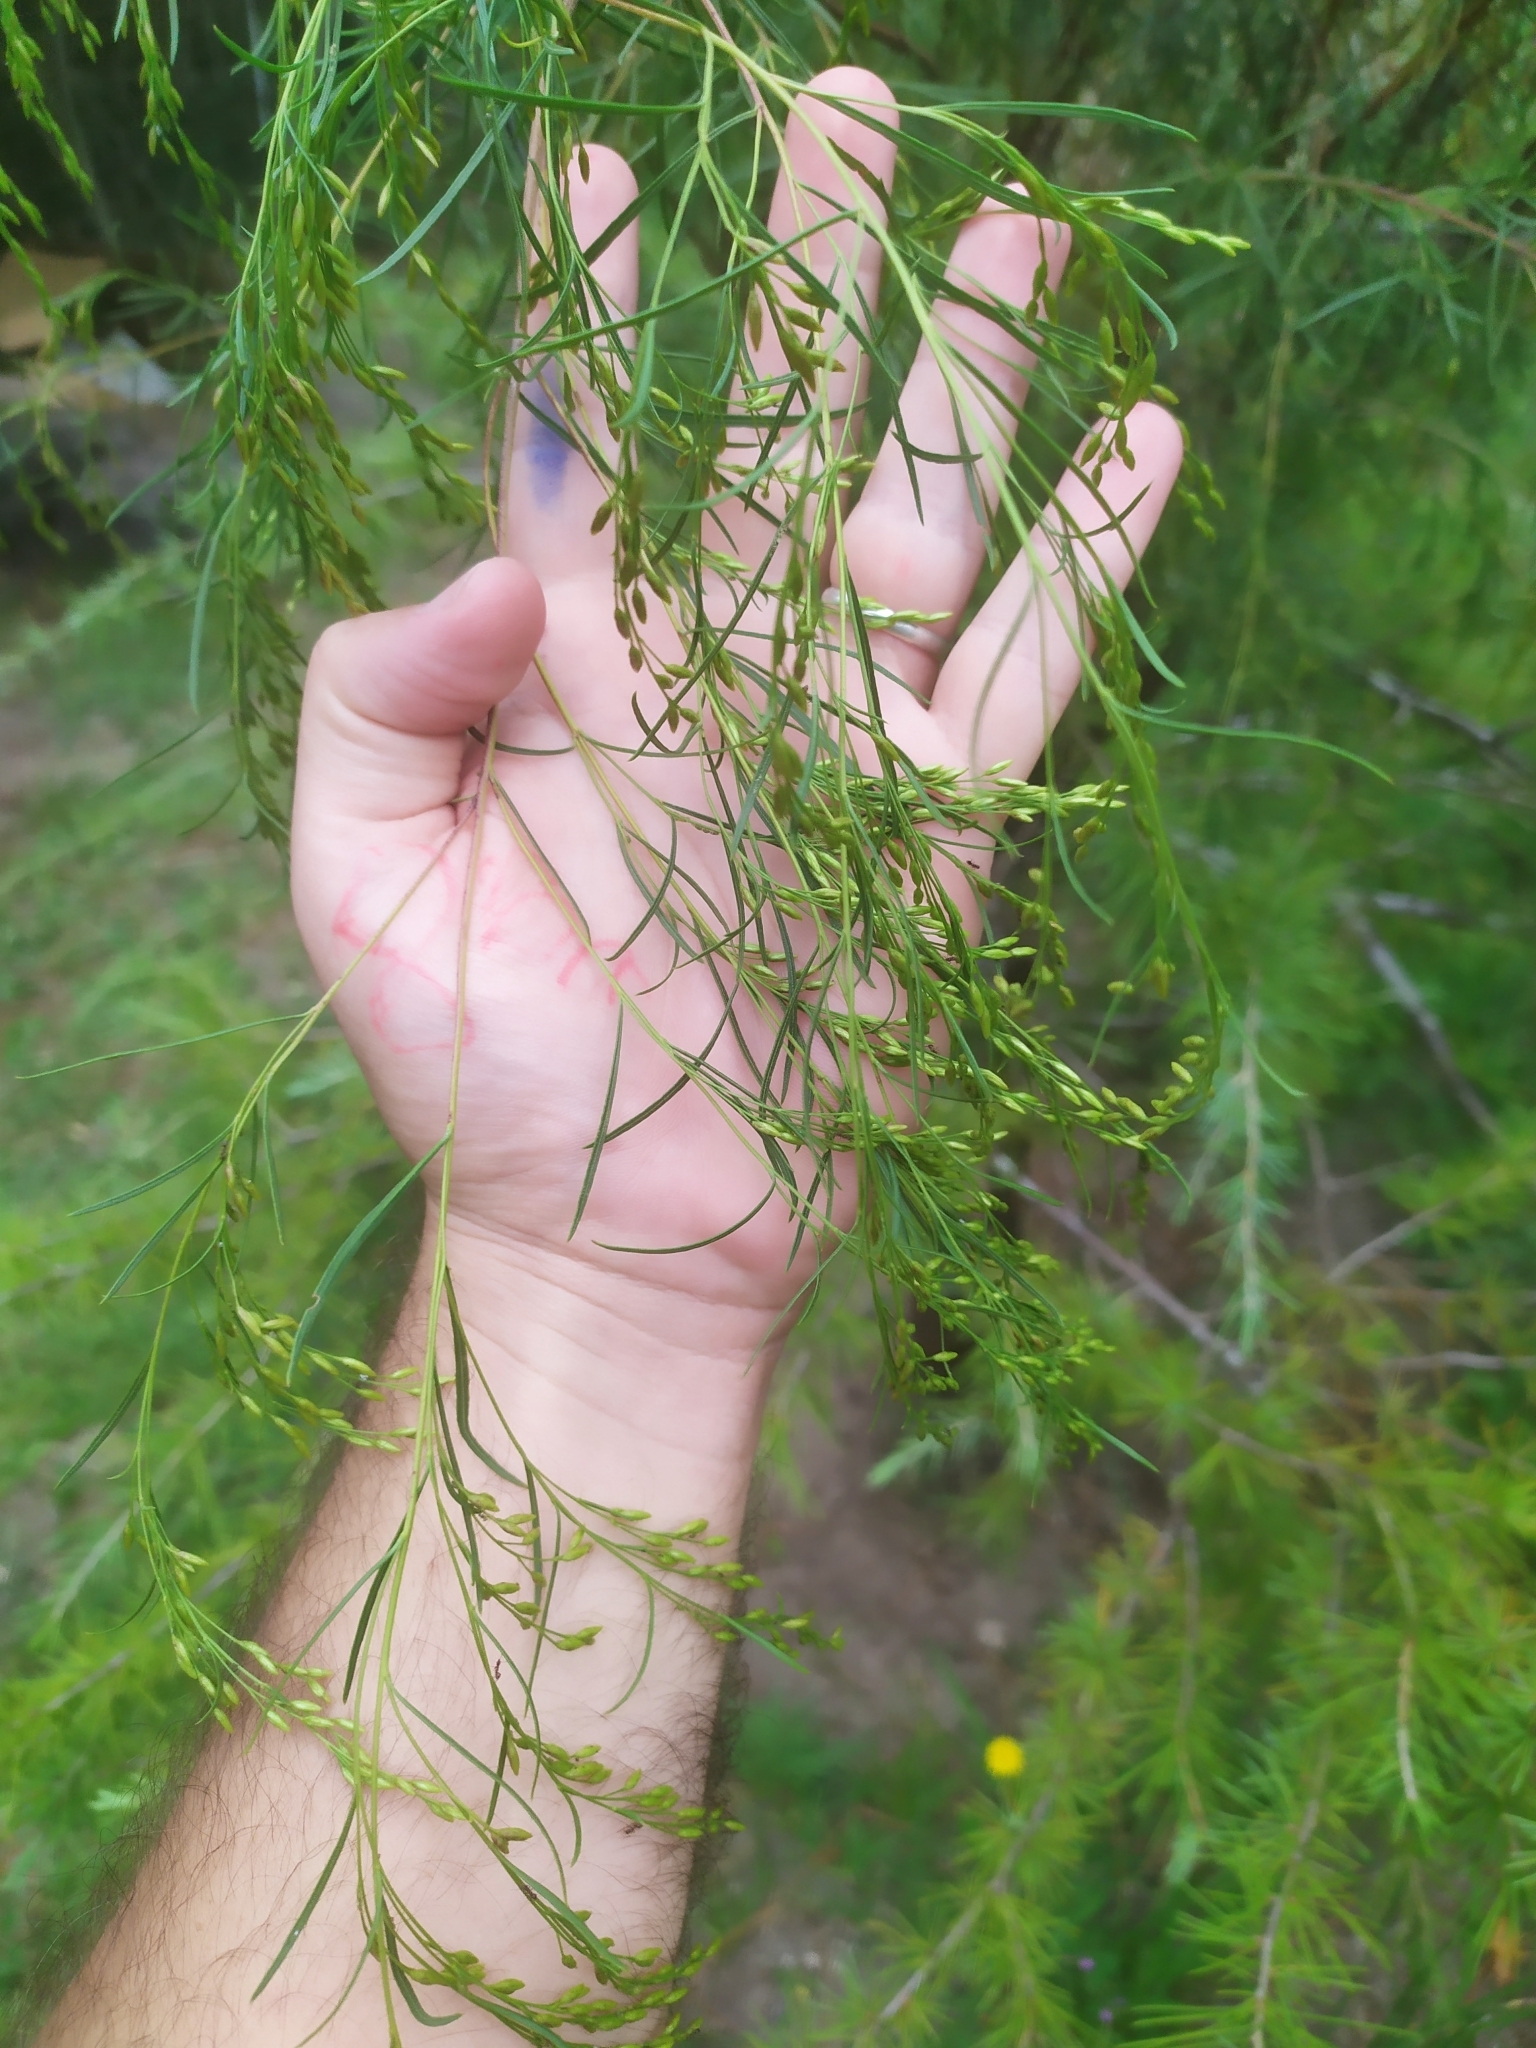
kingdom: Plantae
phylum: Tracheophyta
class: Magnoliopsida
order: Asterales
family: Asteraceae
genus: Acanthostyles
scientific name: Acanthostyles buniifolius
